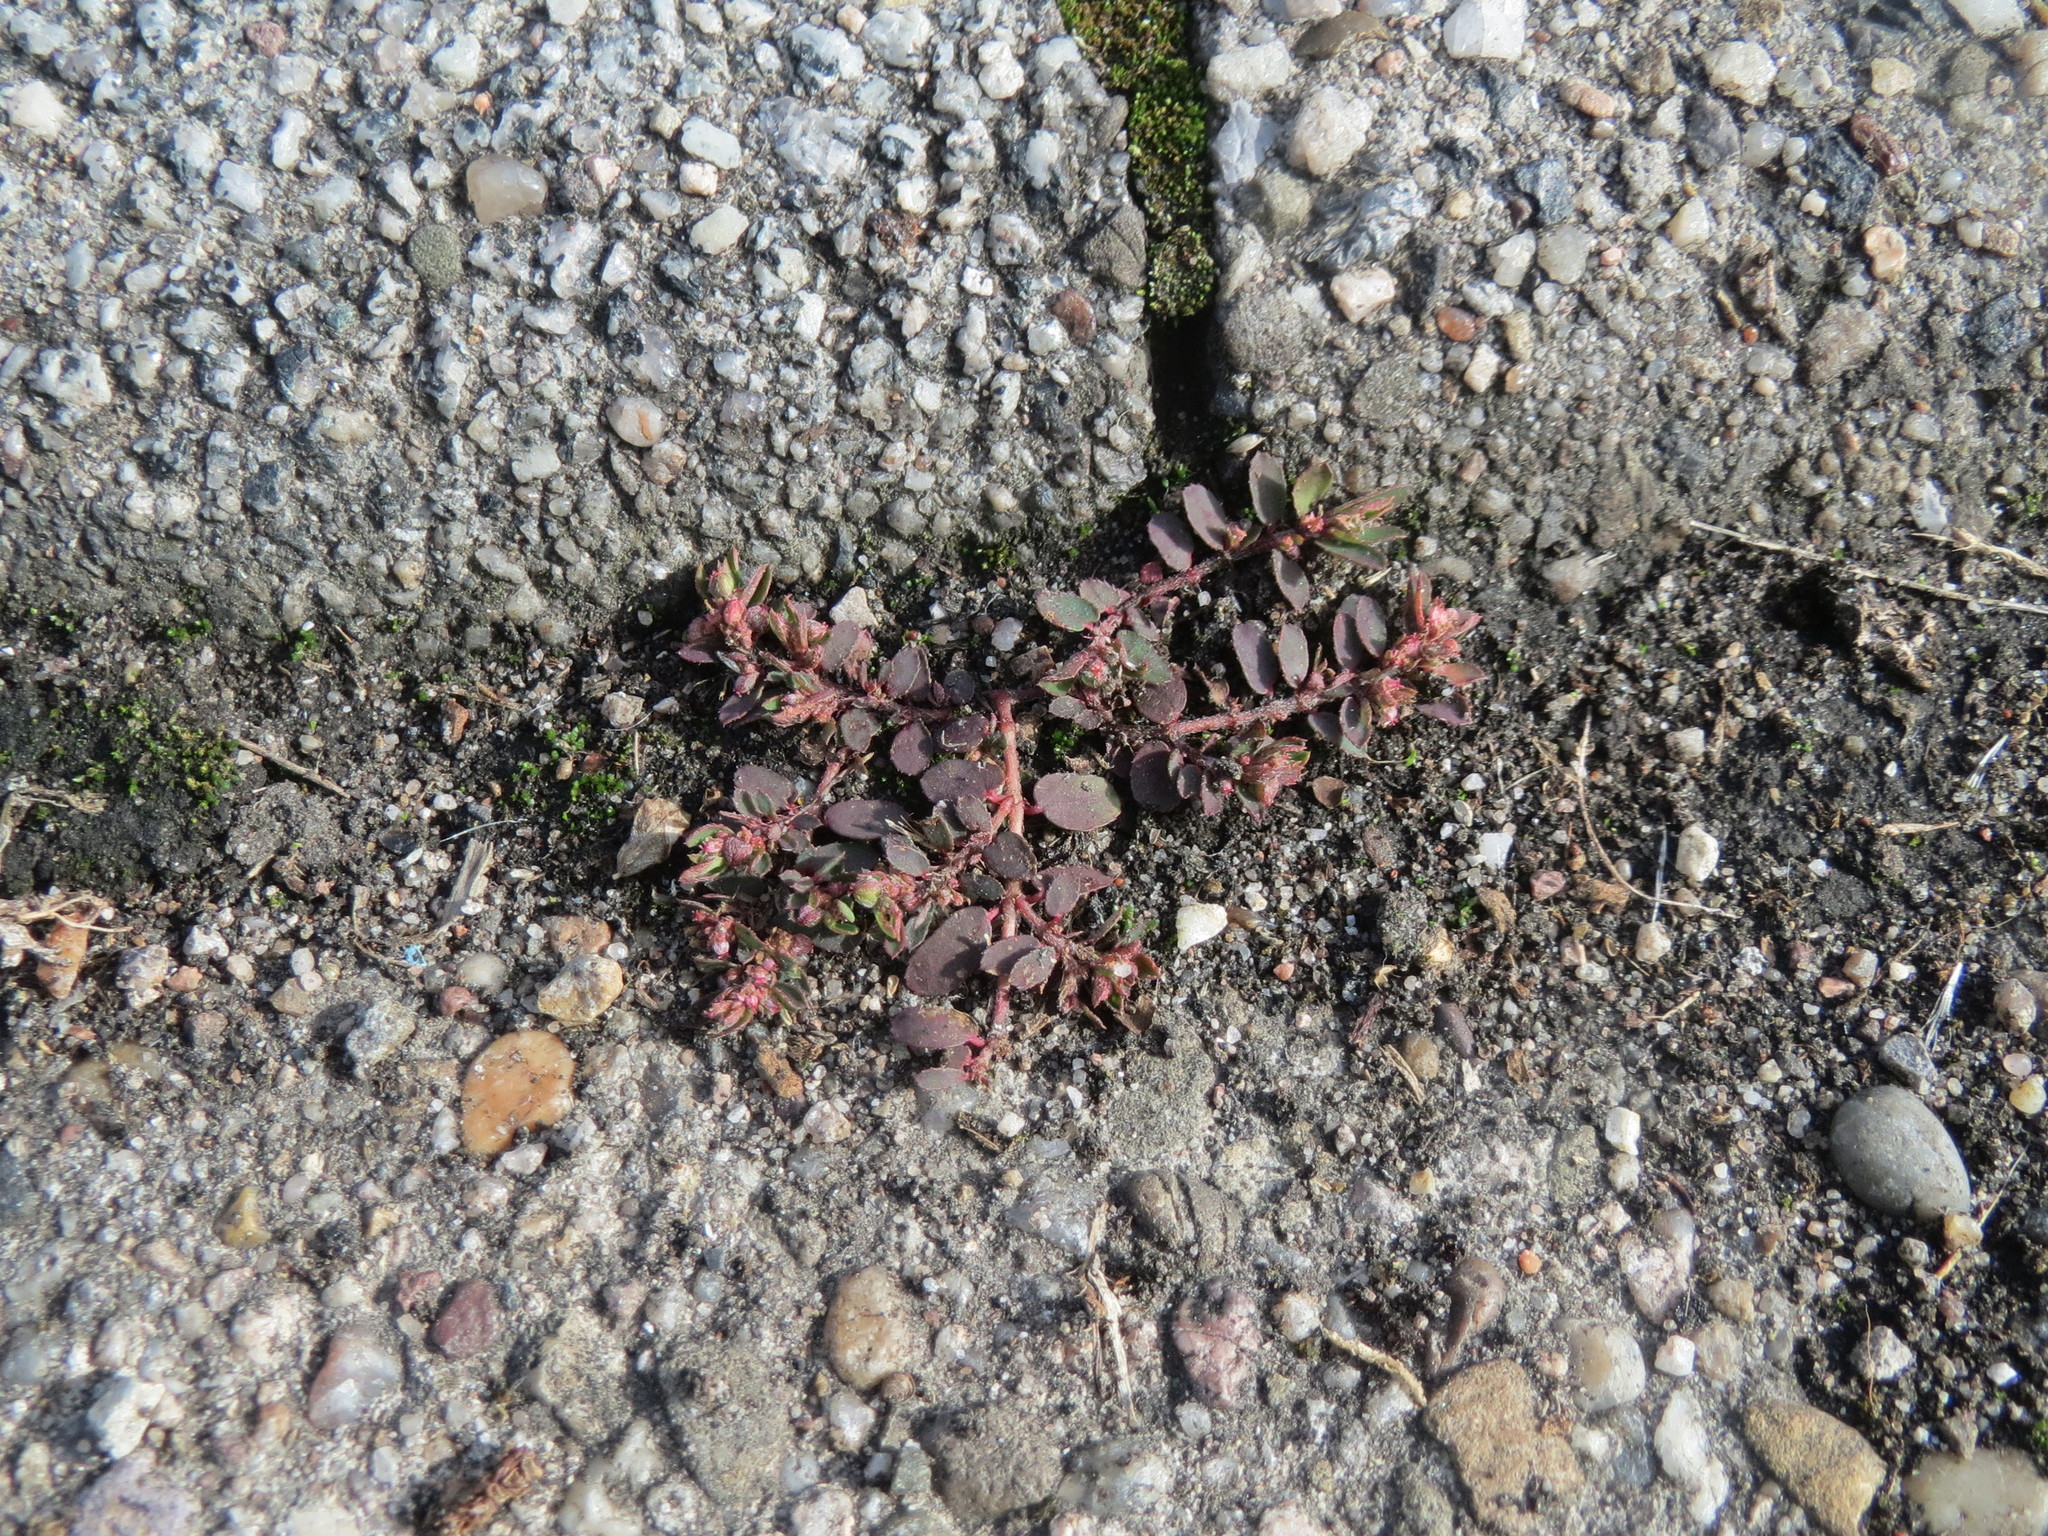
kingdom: Plantae
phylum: Tracheophyta
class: Magnoliopsida
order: Malpighiales
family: Euphorbiaceae
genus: Euphorbia
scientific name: Euphorbia maculata
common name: Spotted spurge
